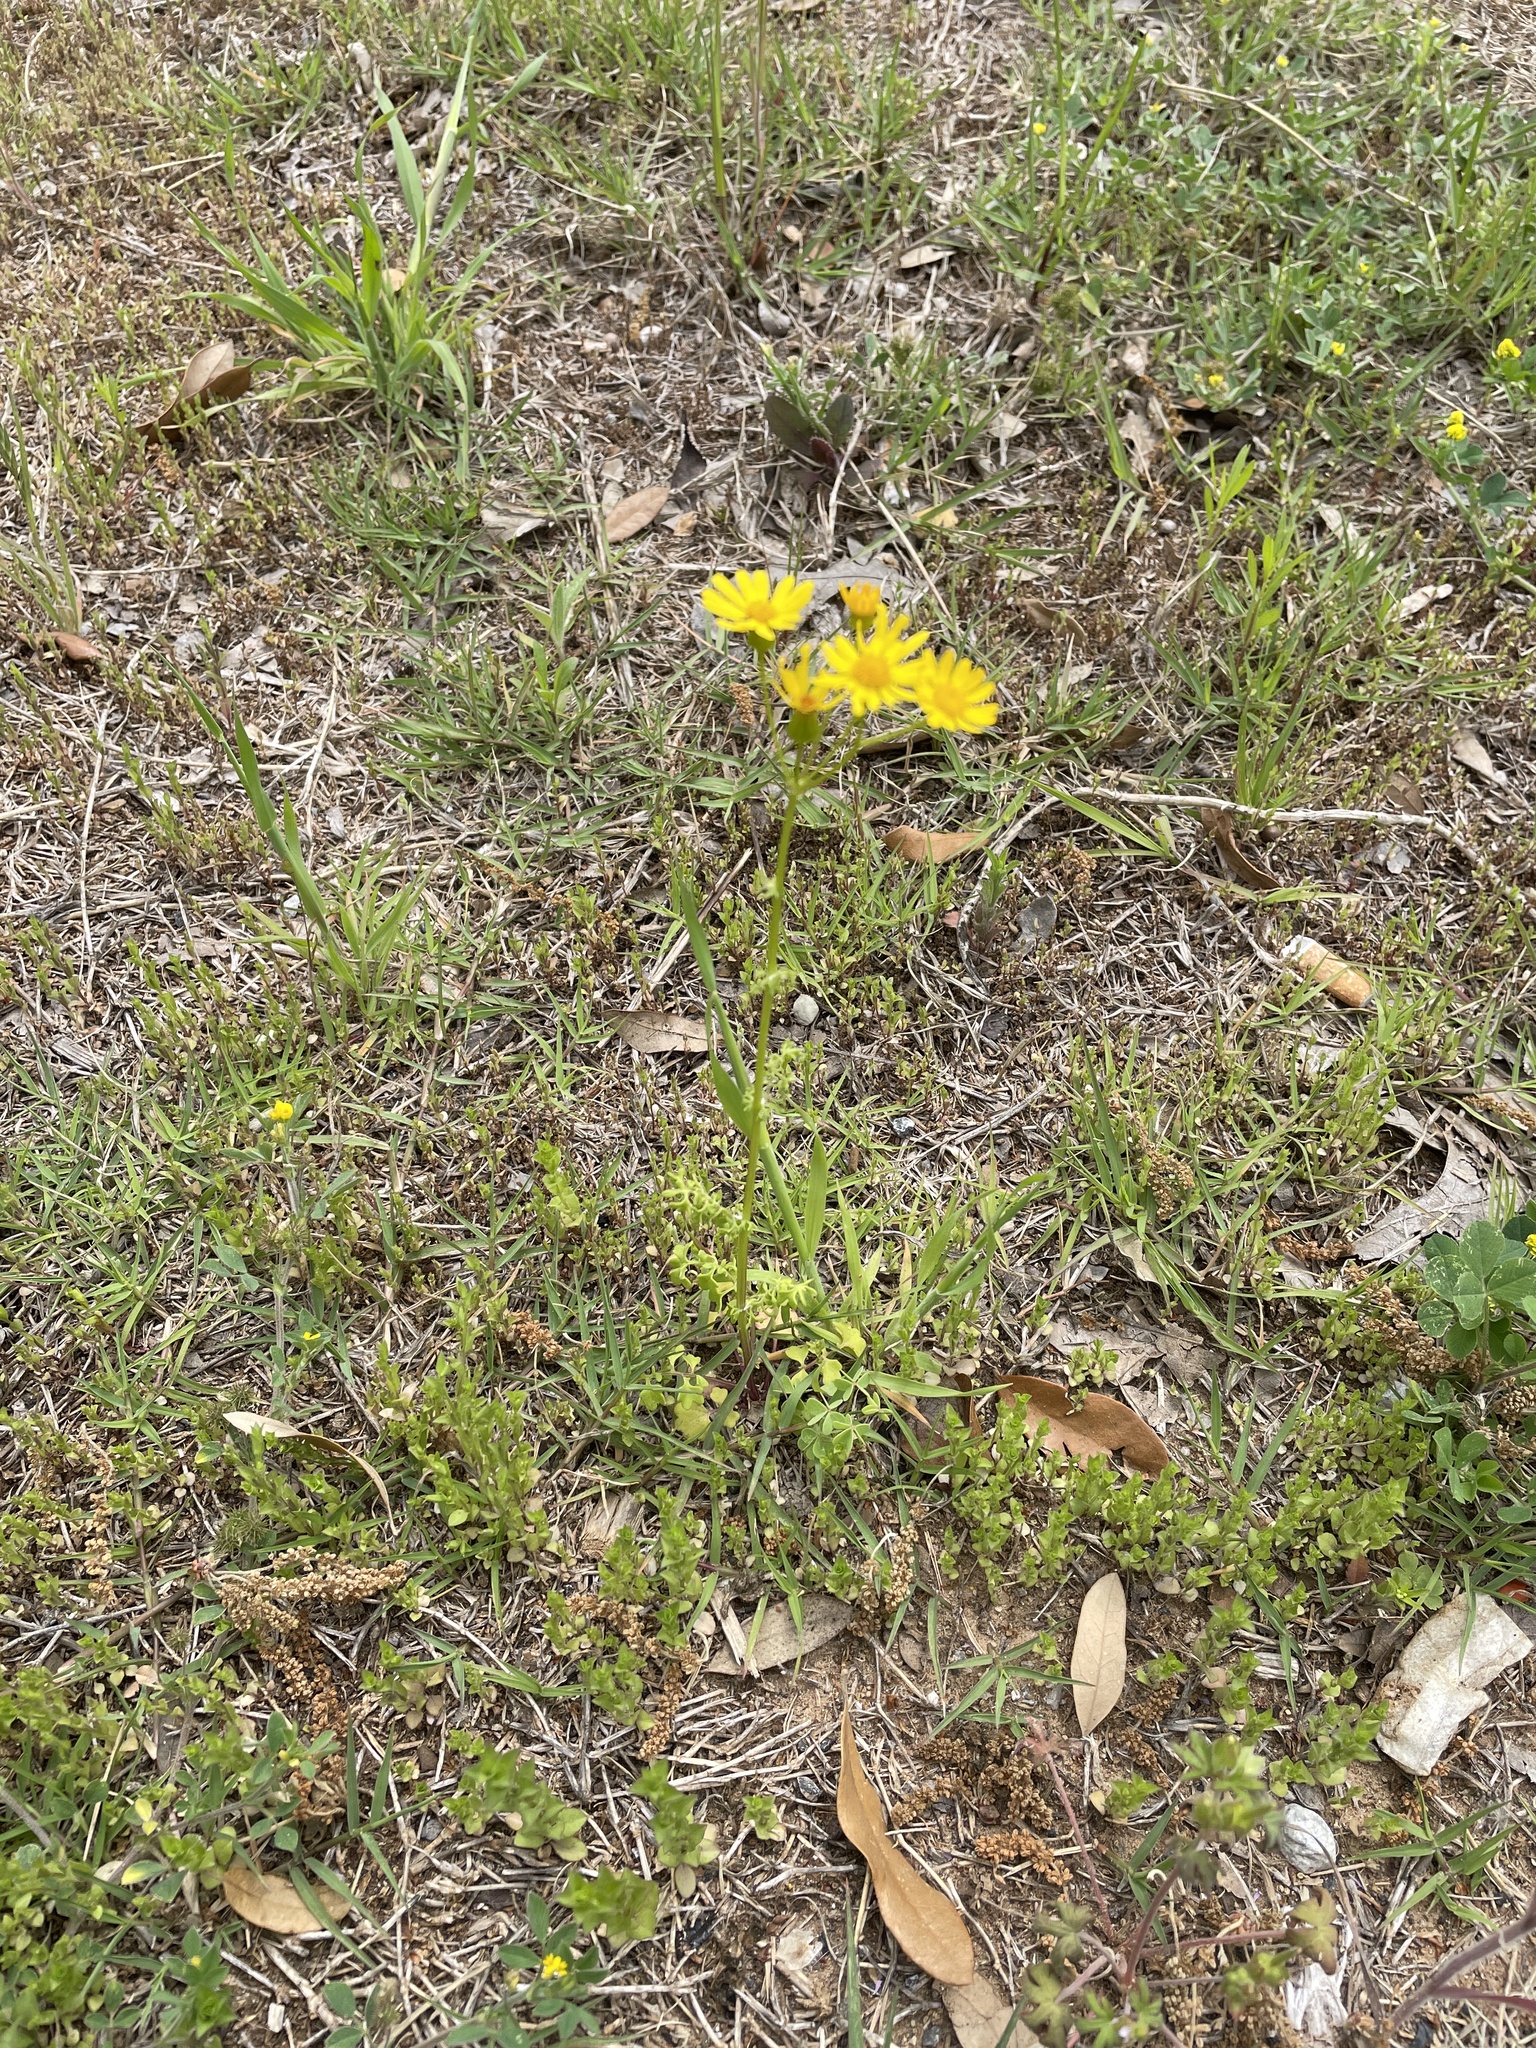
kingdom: Plantae
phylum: Tracheophyta
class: Magnoliopsida
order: Asterales
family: Asteraceae
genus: Packera
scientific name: Packera tampicana
